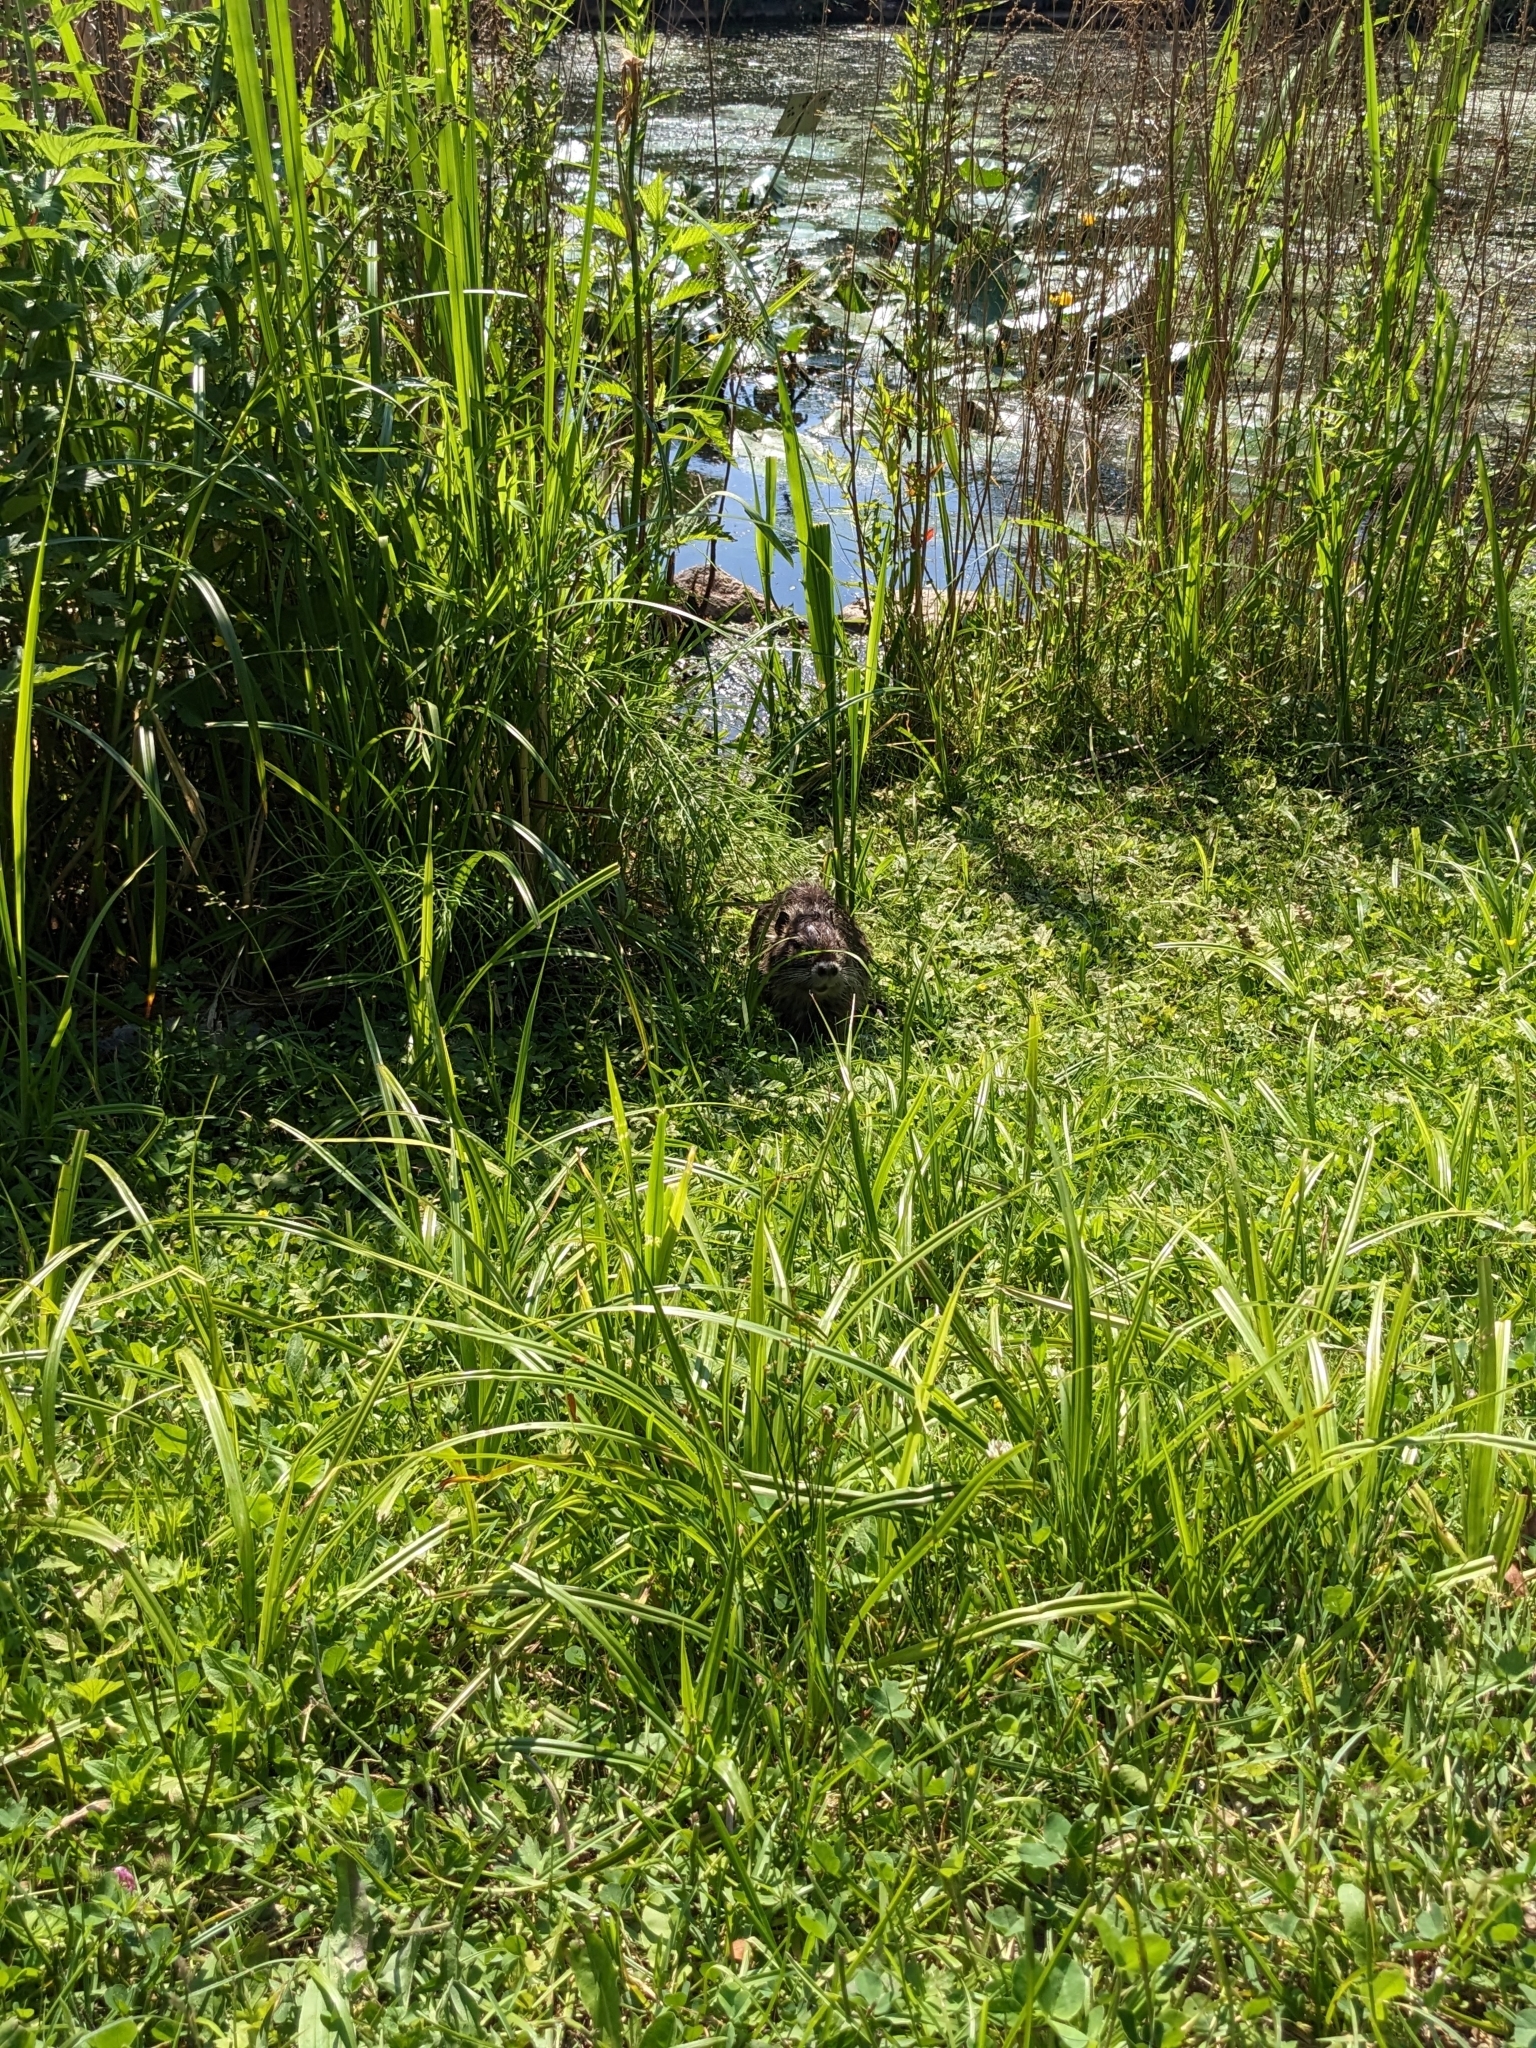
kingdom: Animalia
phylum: Chordata
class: Mammalia
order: Rodentia
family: Myocastoridae
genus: Myocastor
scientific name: Myocastor coypus
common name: Coypu
